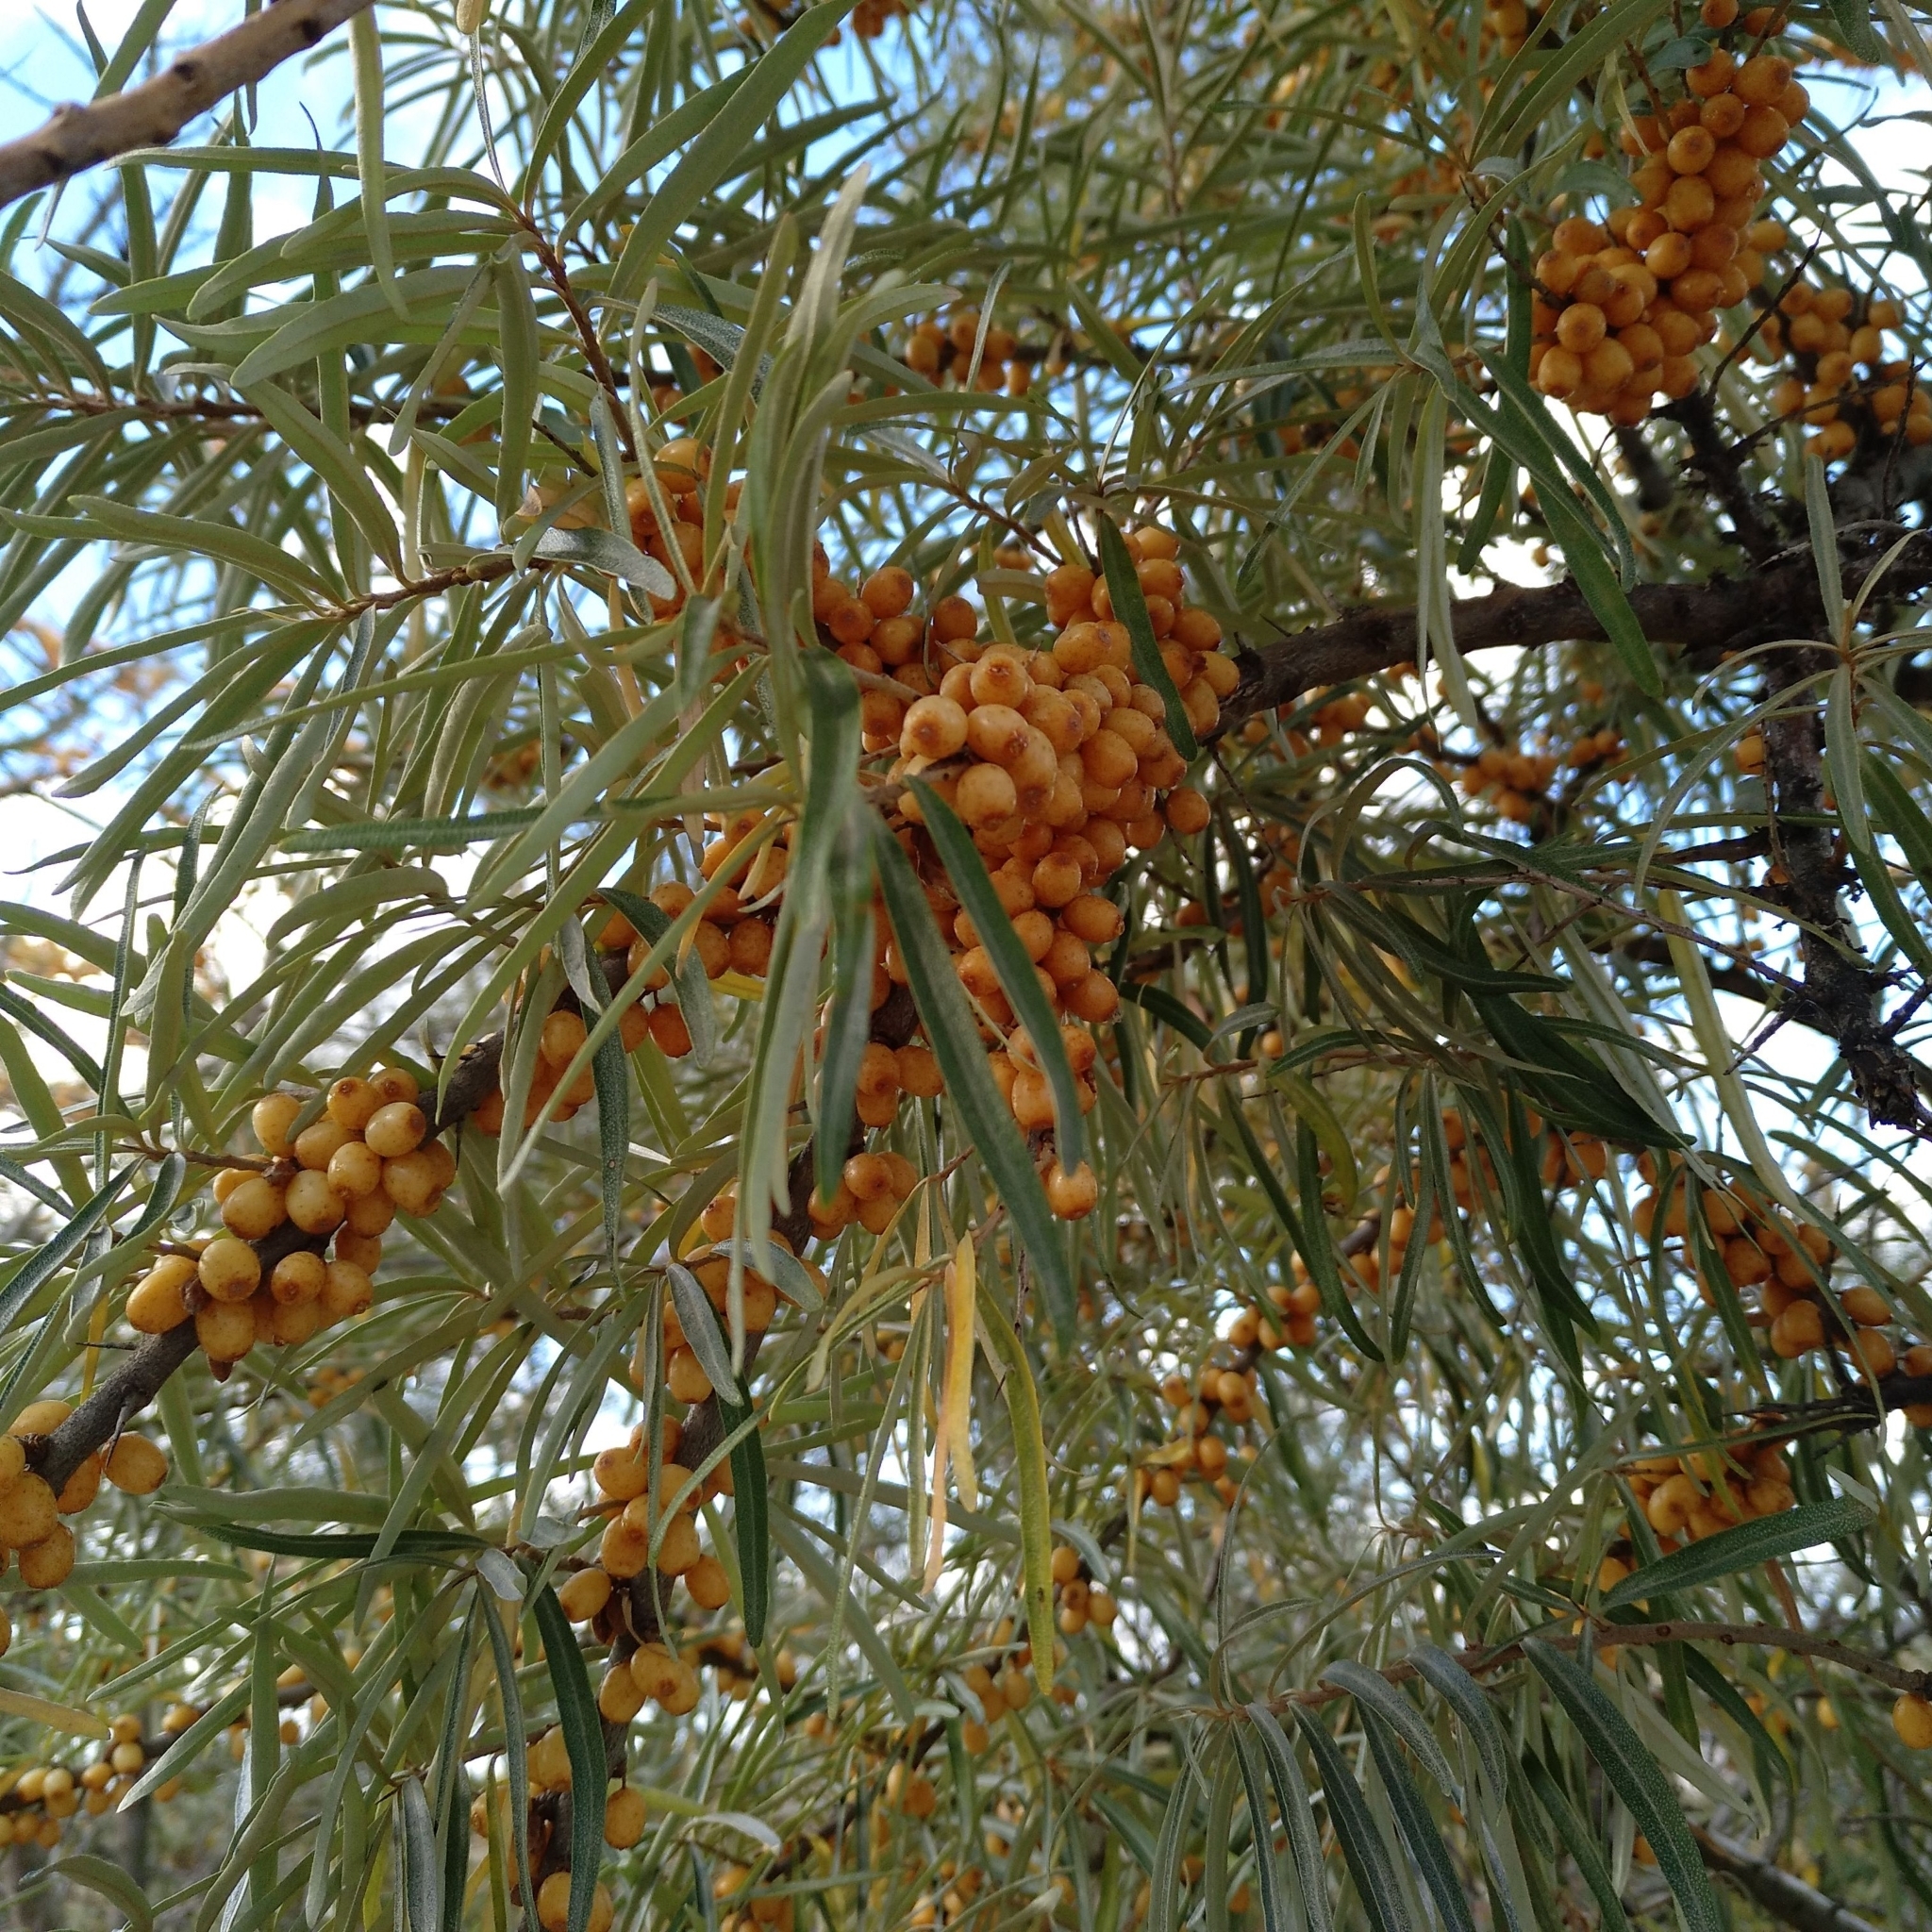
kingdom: Plantae
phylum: Tracheophyta
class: Magnoliopsida
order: Rosales
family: Elaeagnaceae
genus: Hippophae
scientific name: Hippophae rhamnoides
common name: Sea-buckthorn
